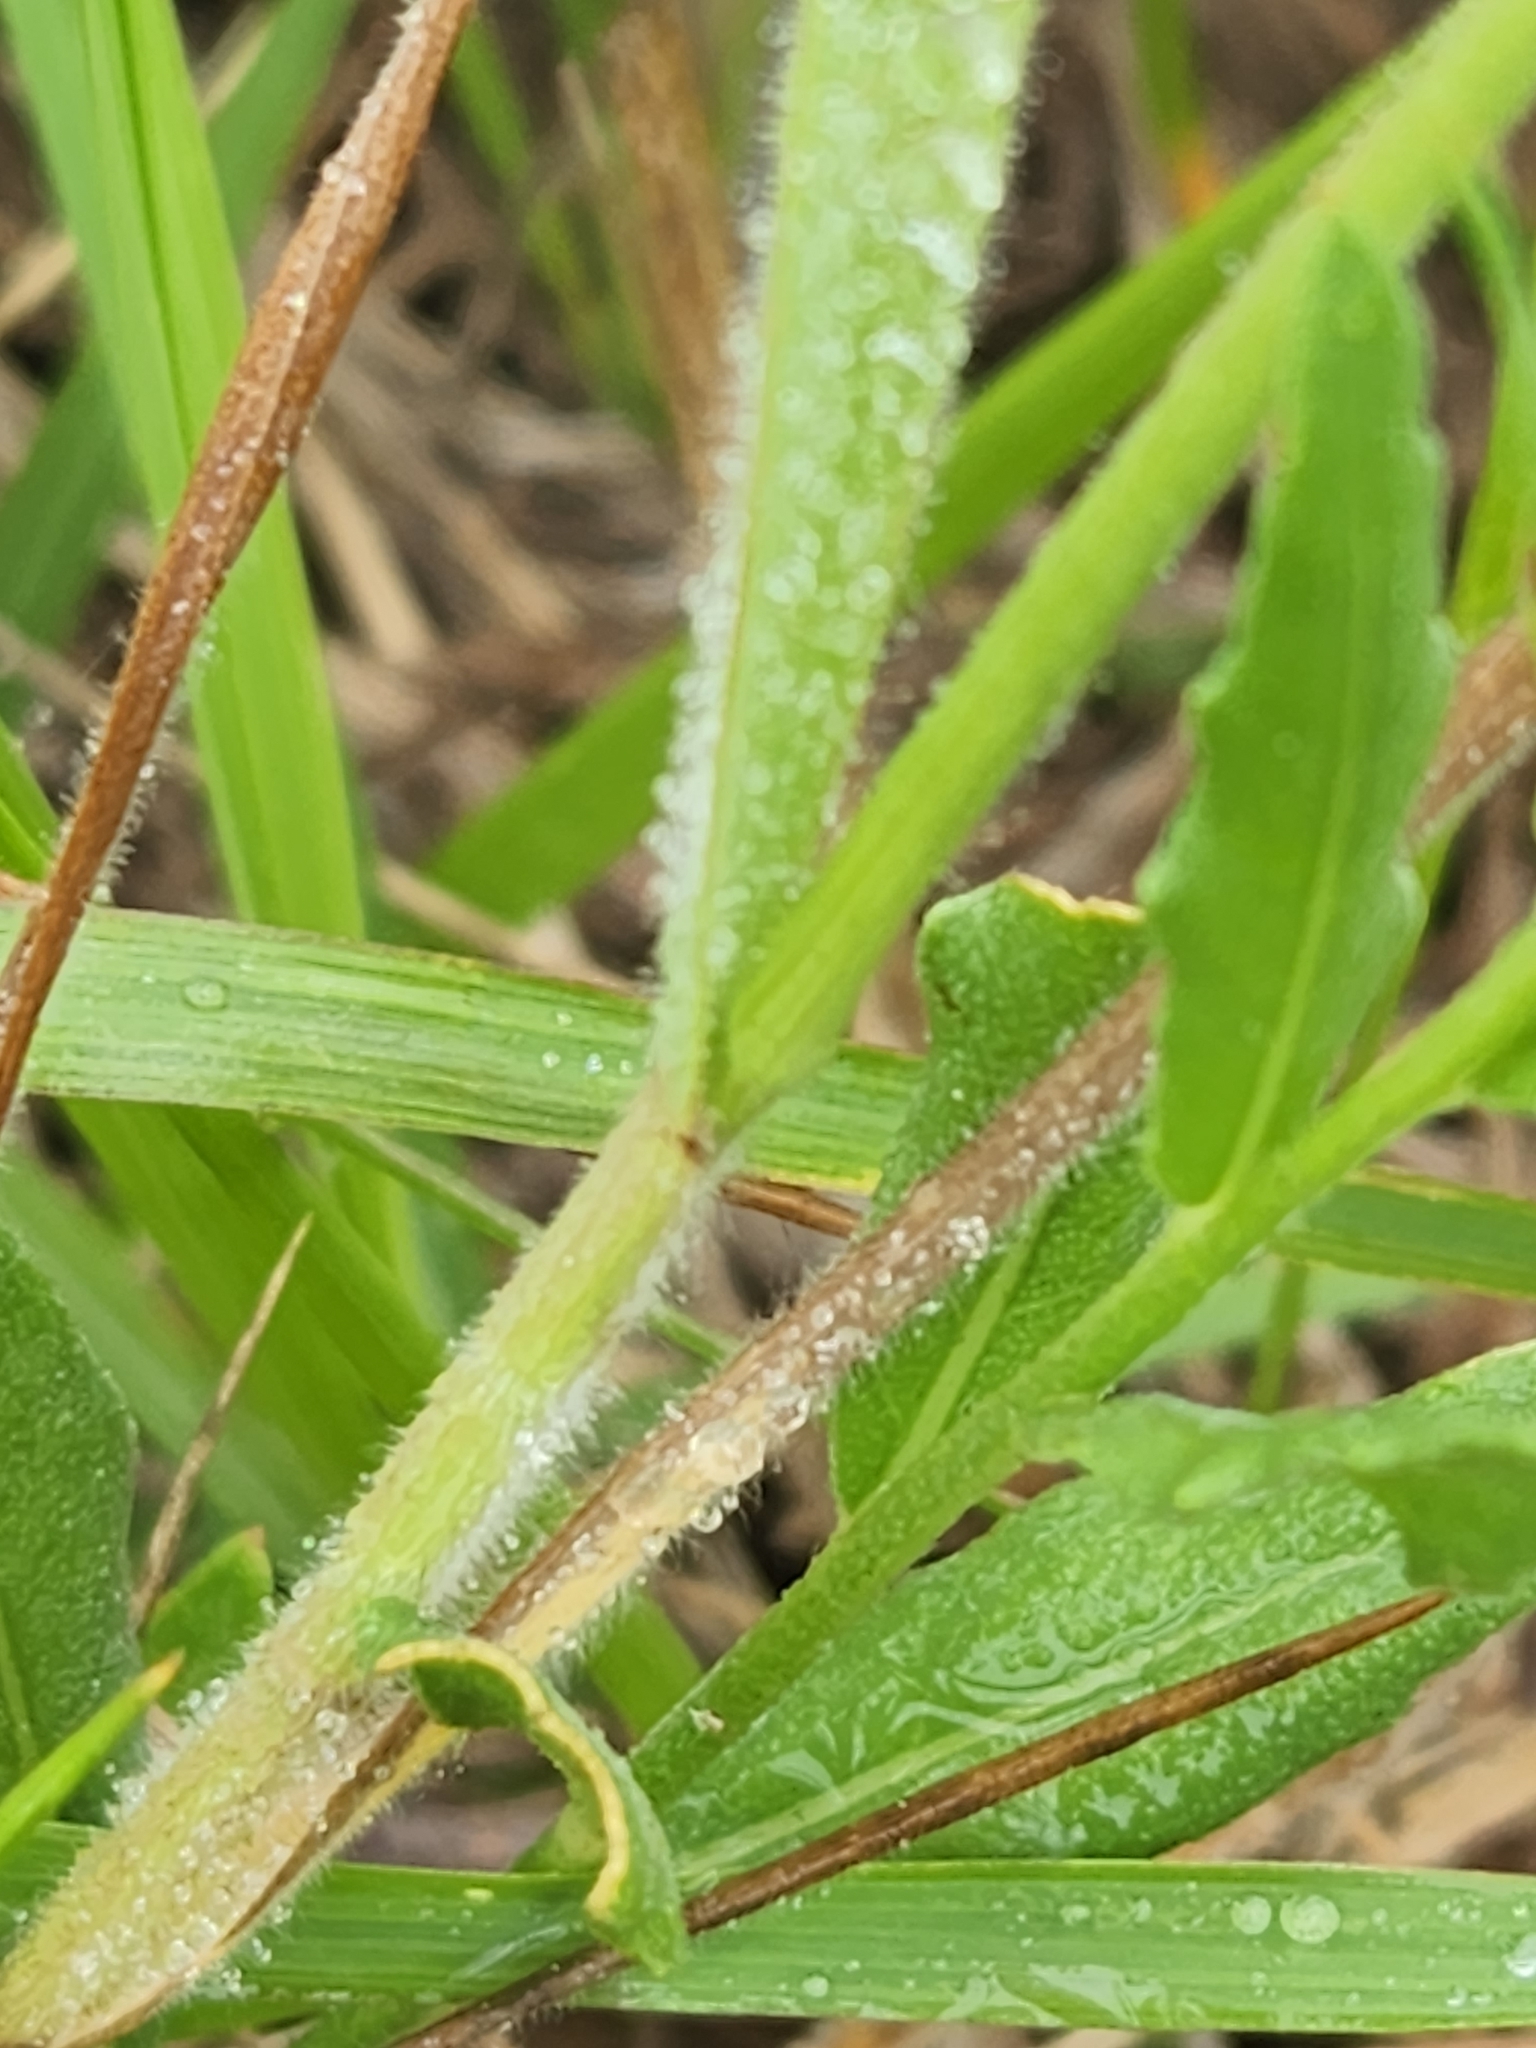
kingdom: Plantae
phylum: Tracheophyta
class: Liliopsida
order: Poales
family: Poaceae
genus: Bromus
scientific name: Bromus japonicus
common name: Japanese brome
